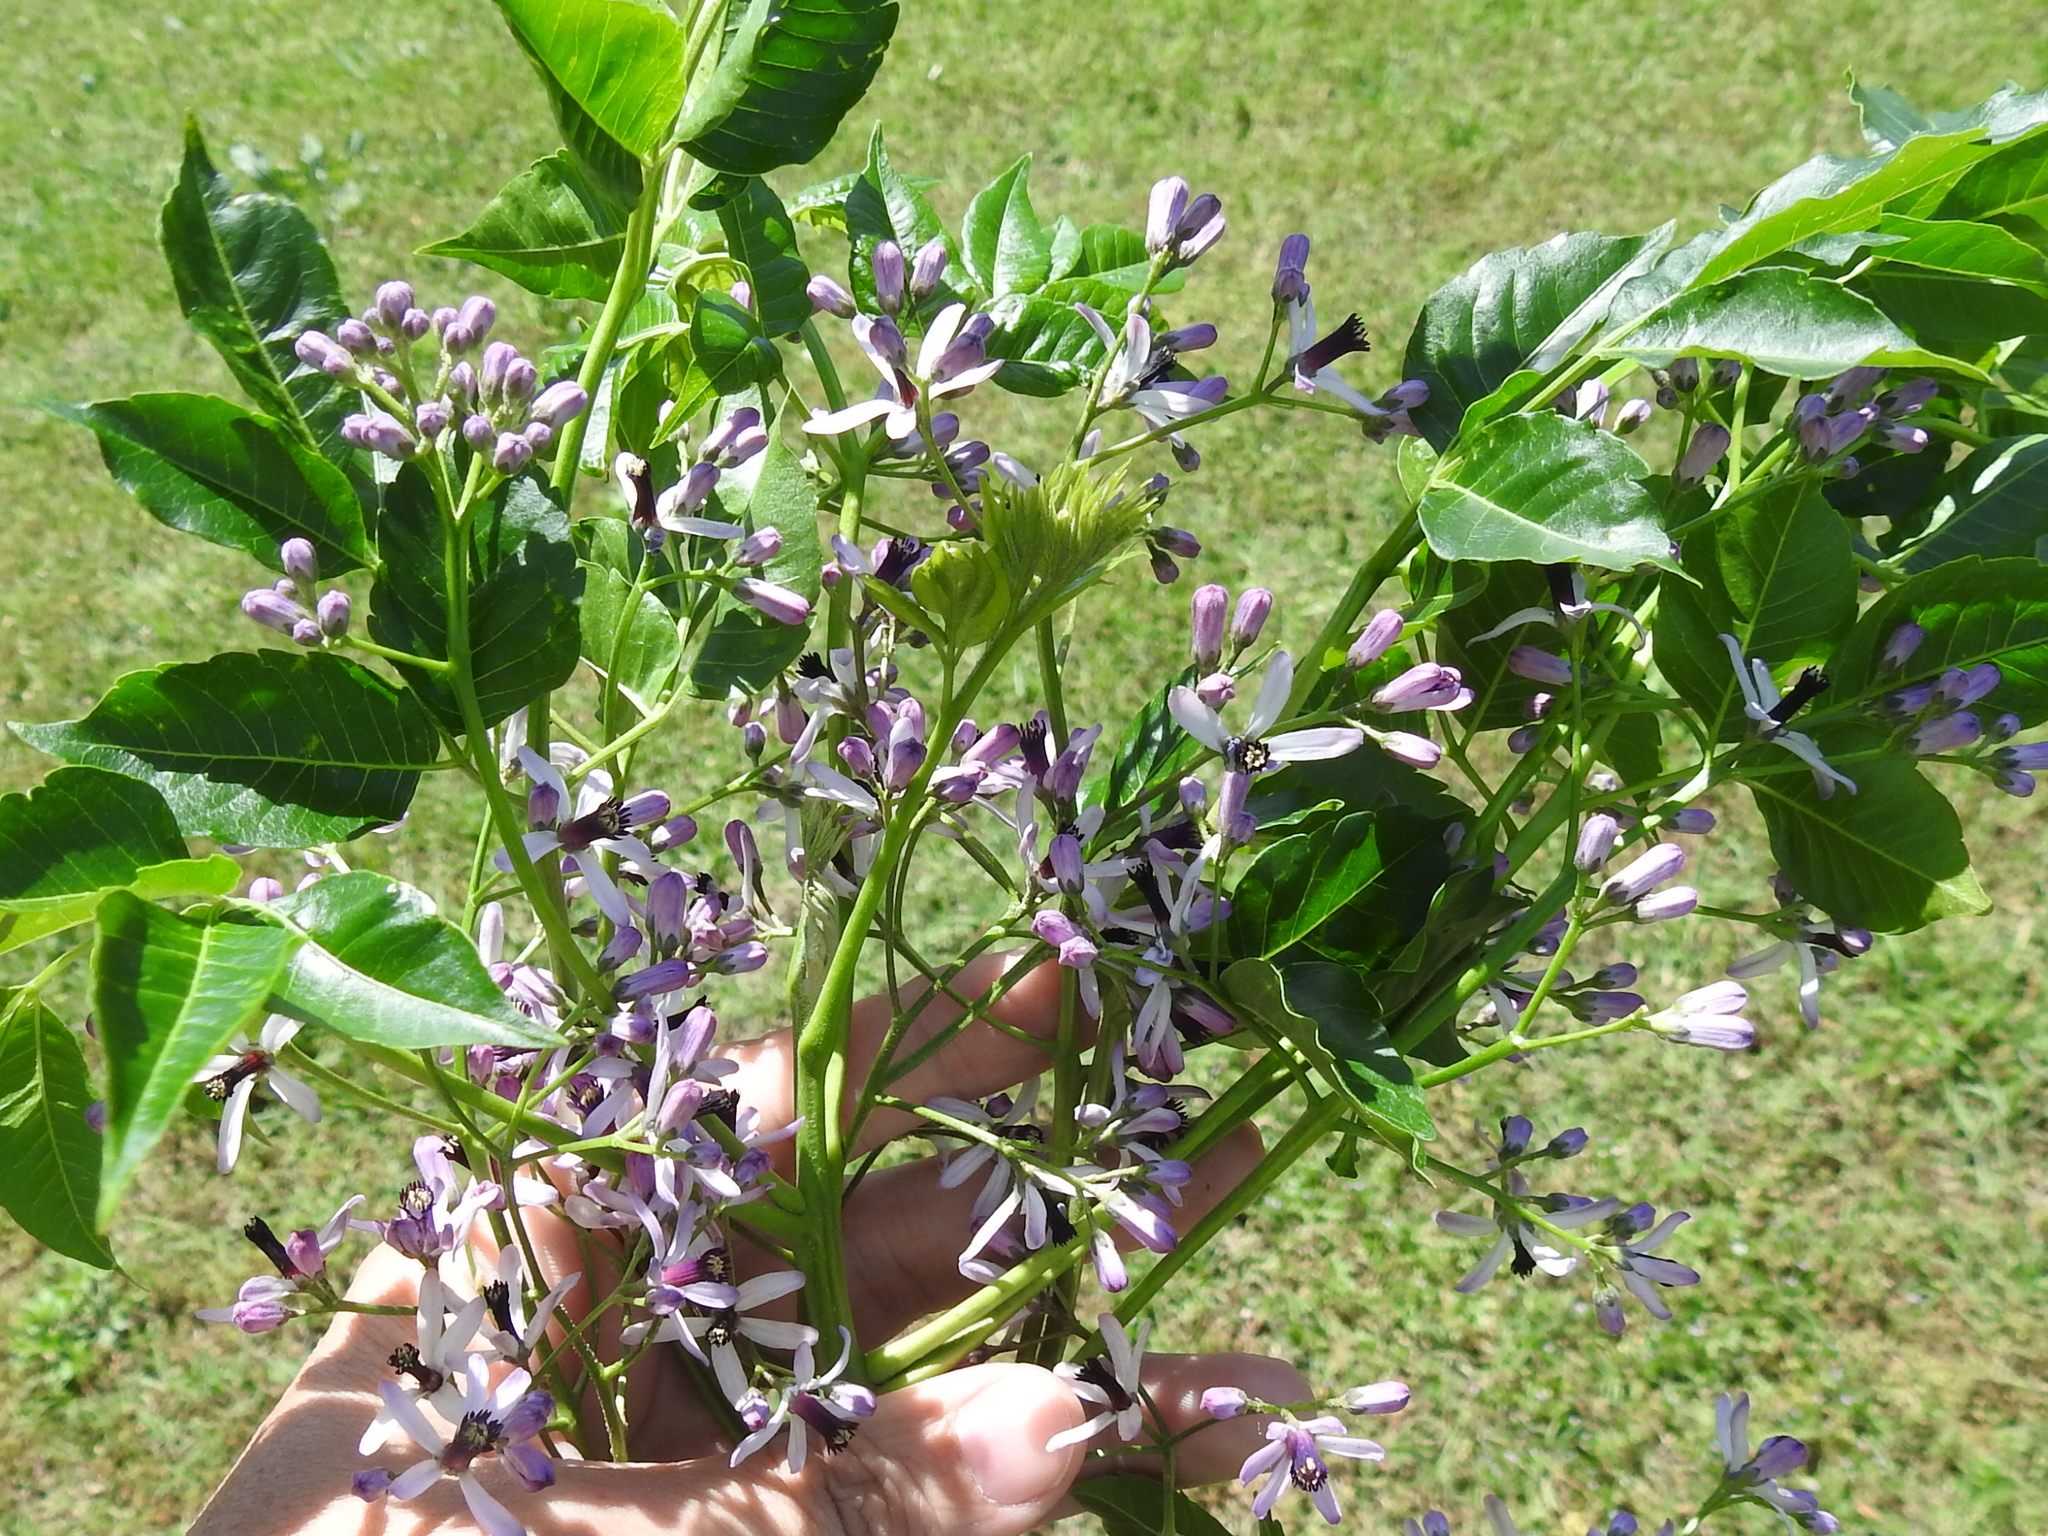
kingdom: Plantae
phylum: Tracheophyta
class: Magnoliopsida
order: Sapindales
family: Meliaceae
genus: Melia
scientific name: Melia azedarach
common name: Chinaberrytree
